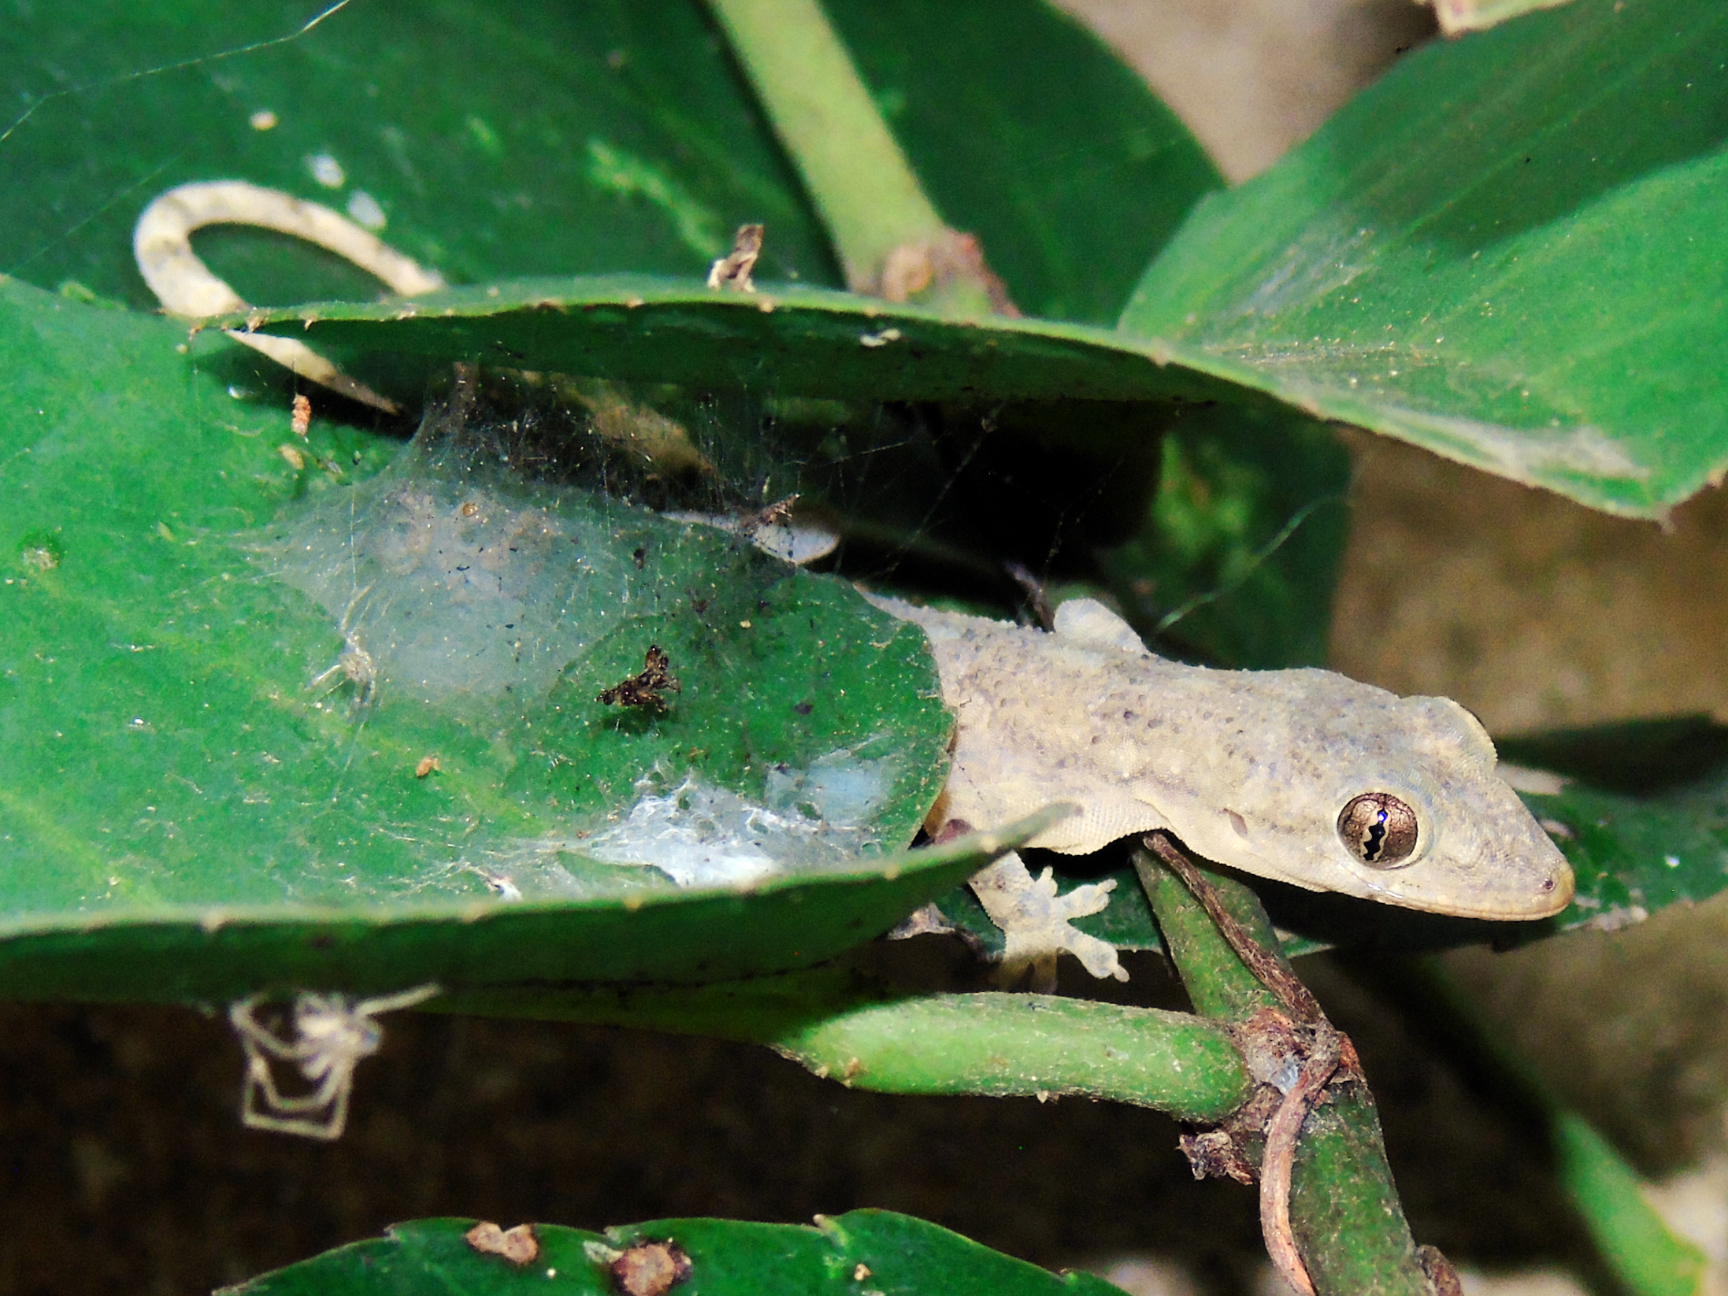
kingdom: Animalia
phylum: Chordata
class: Squamata
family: Gekkonidae
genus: Hemidactylus
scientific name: Hemidactylus mabouia
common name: House gecko
